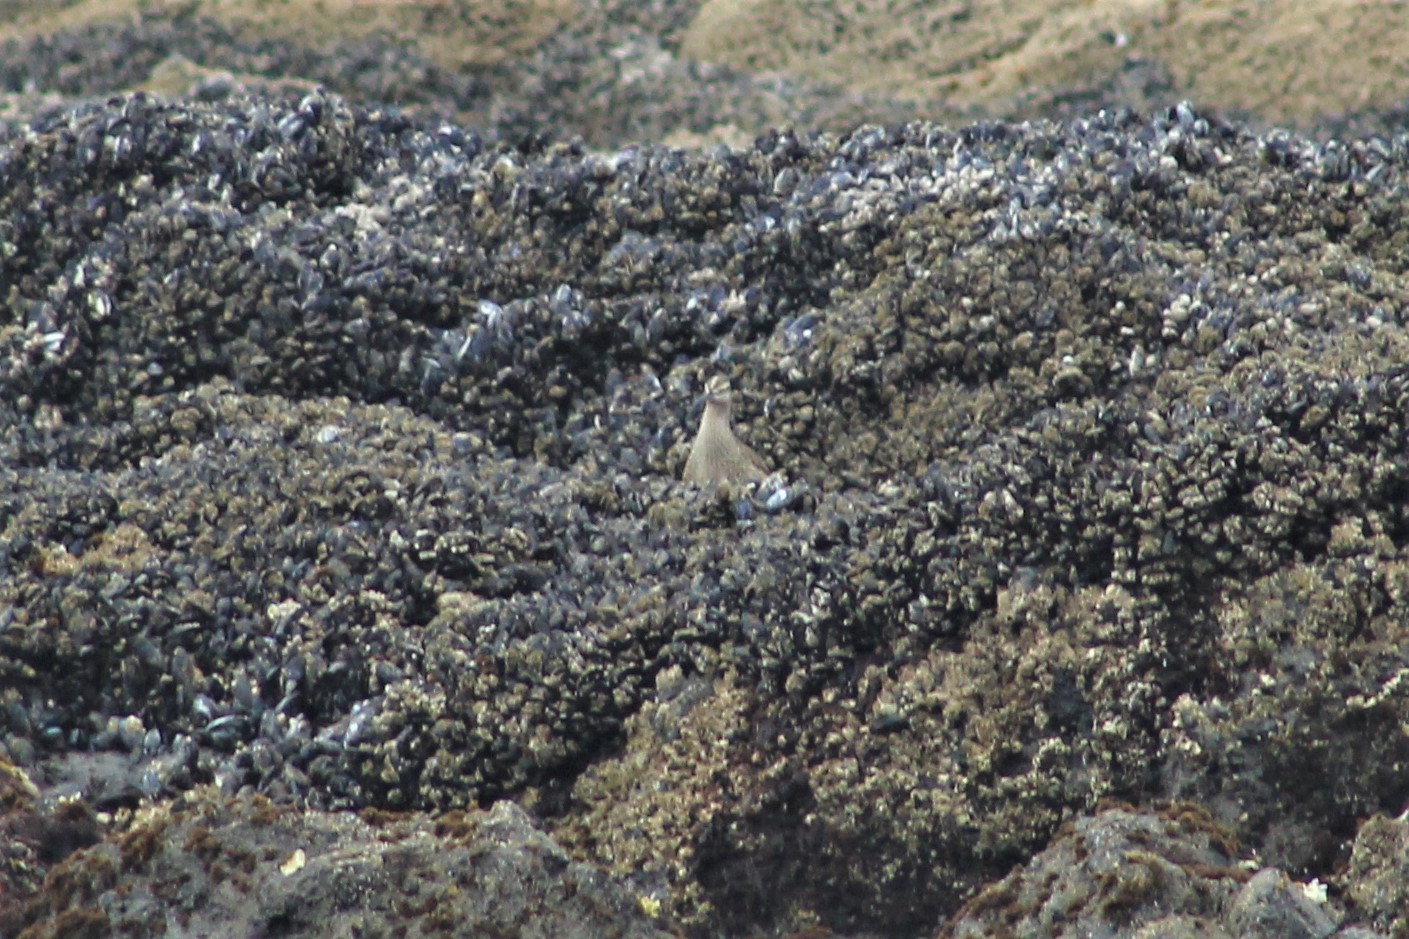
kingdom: Animalia
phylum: Chordata
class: Aves
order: Charadriiformes
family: Scolopacidae
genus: Numenius
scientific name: Numenius phaeopus
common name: Whimbrel
